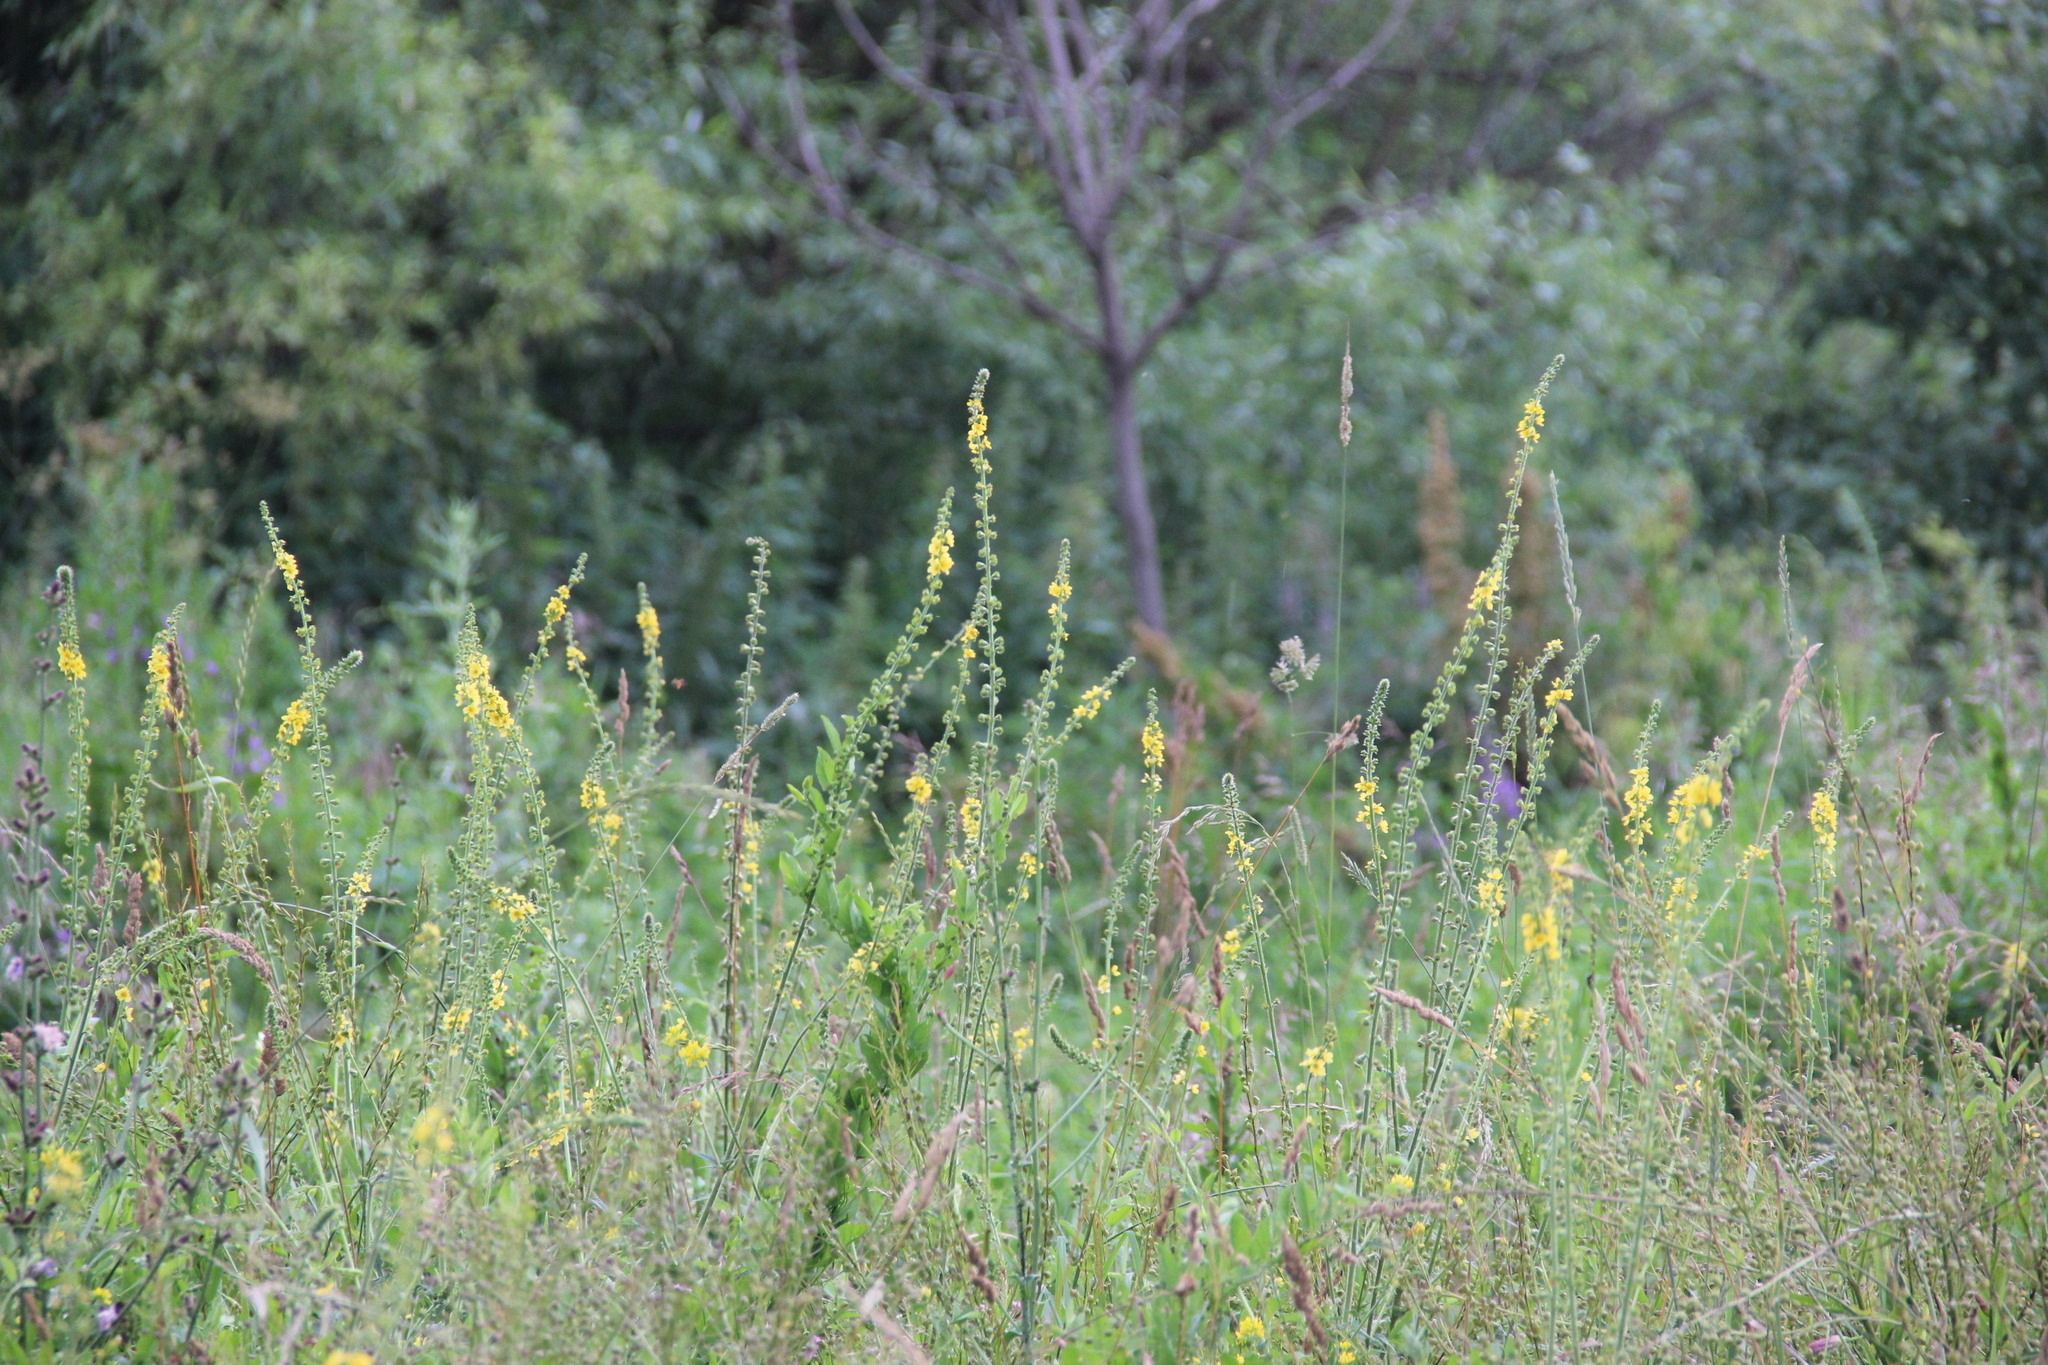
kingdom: Plantae
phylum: Tracheophyta
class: Magnoliopsida
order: Rosales
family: Rosaceae
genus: Agrimonia
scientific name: Agrimonia eupatoria
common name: Agrimony
